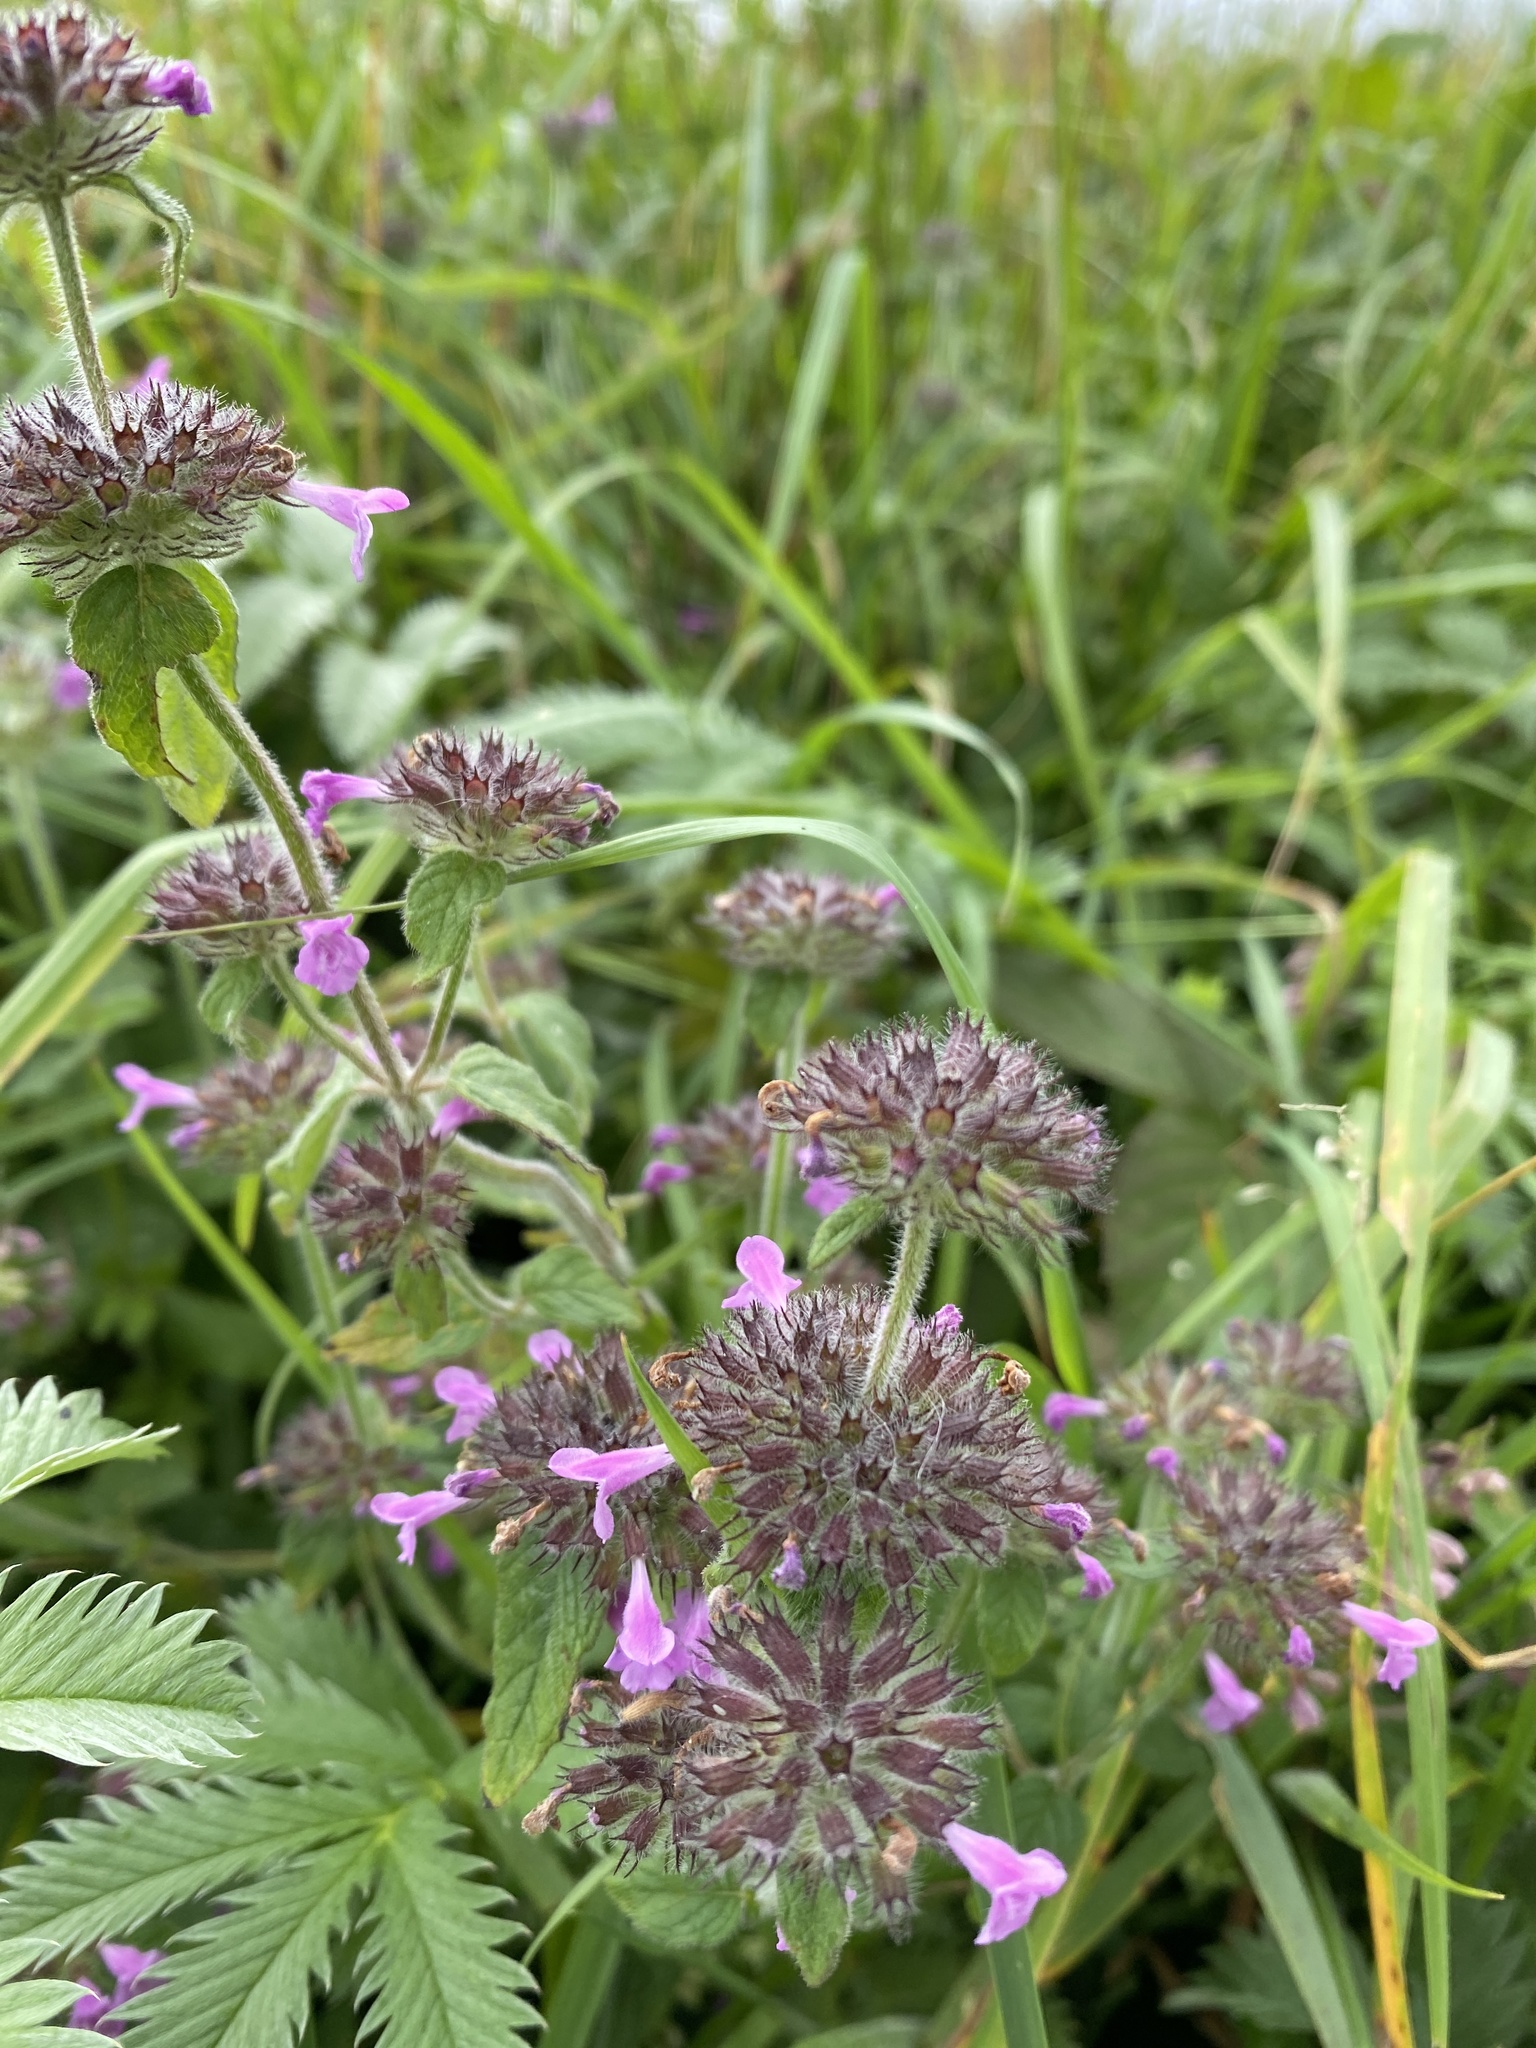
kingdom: Plantae
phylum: Tracheophyta
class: Magnoliopsida
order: Lamiales
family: Lamiaceae
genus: Clinopodium
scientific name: Clinopodium vulgare
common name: Wild basil
